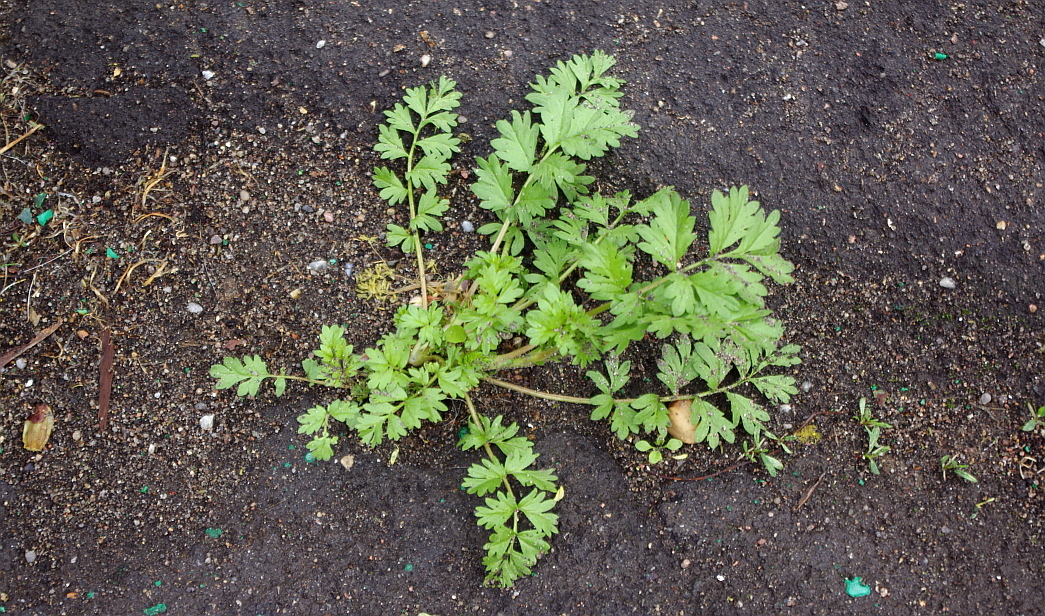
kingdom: Plantae
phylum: Tracheophyta
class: Magnoliopsida
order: Rosales
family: Rosaceae
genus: Potentilla
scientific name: Potentilla supina
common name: Prostrate cinquefoil
